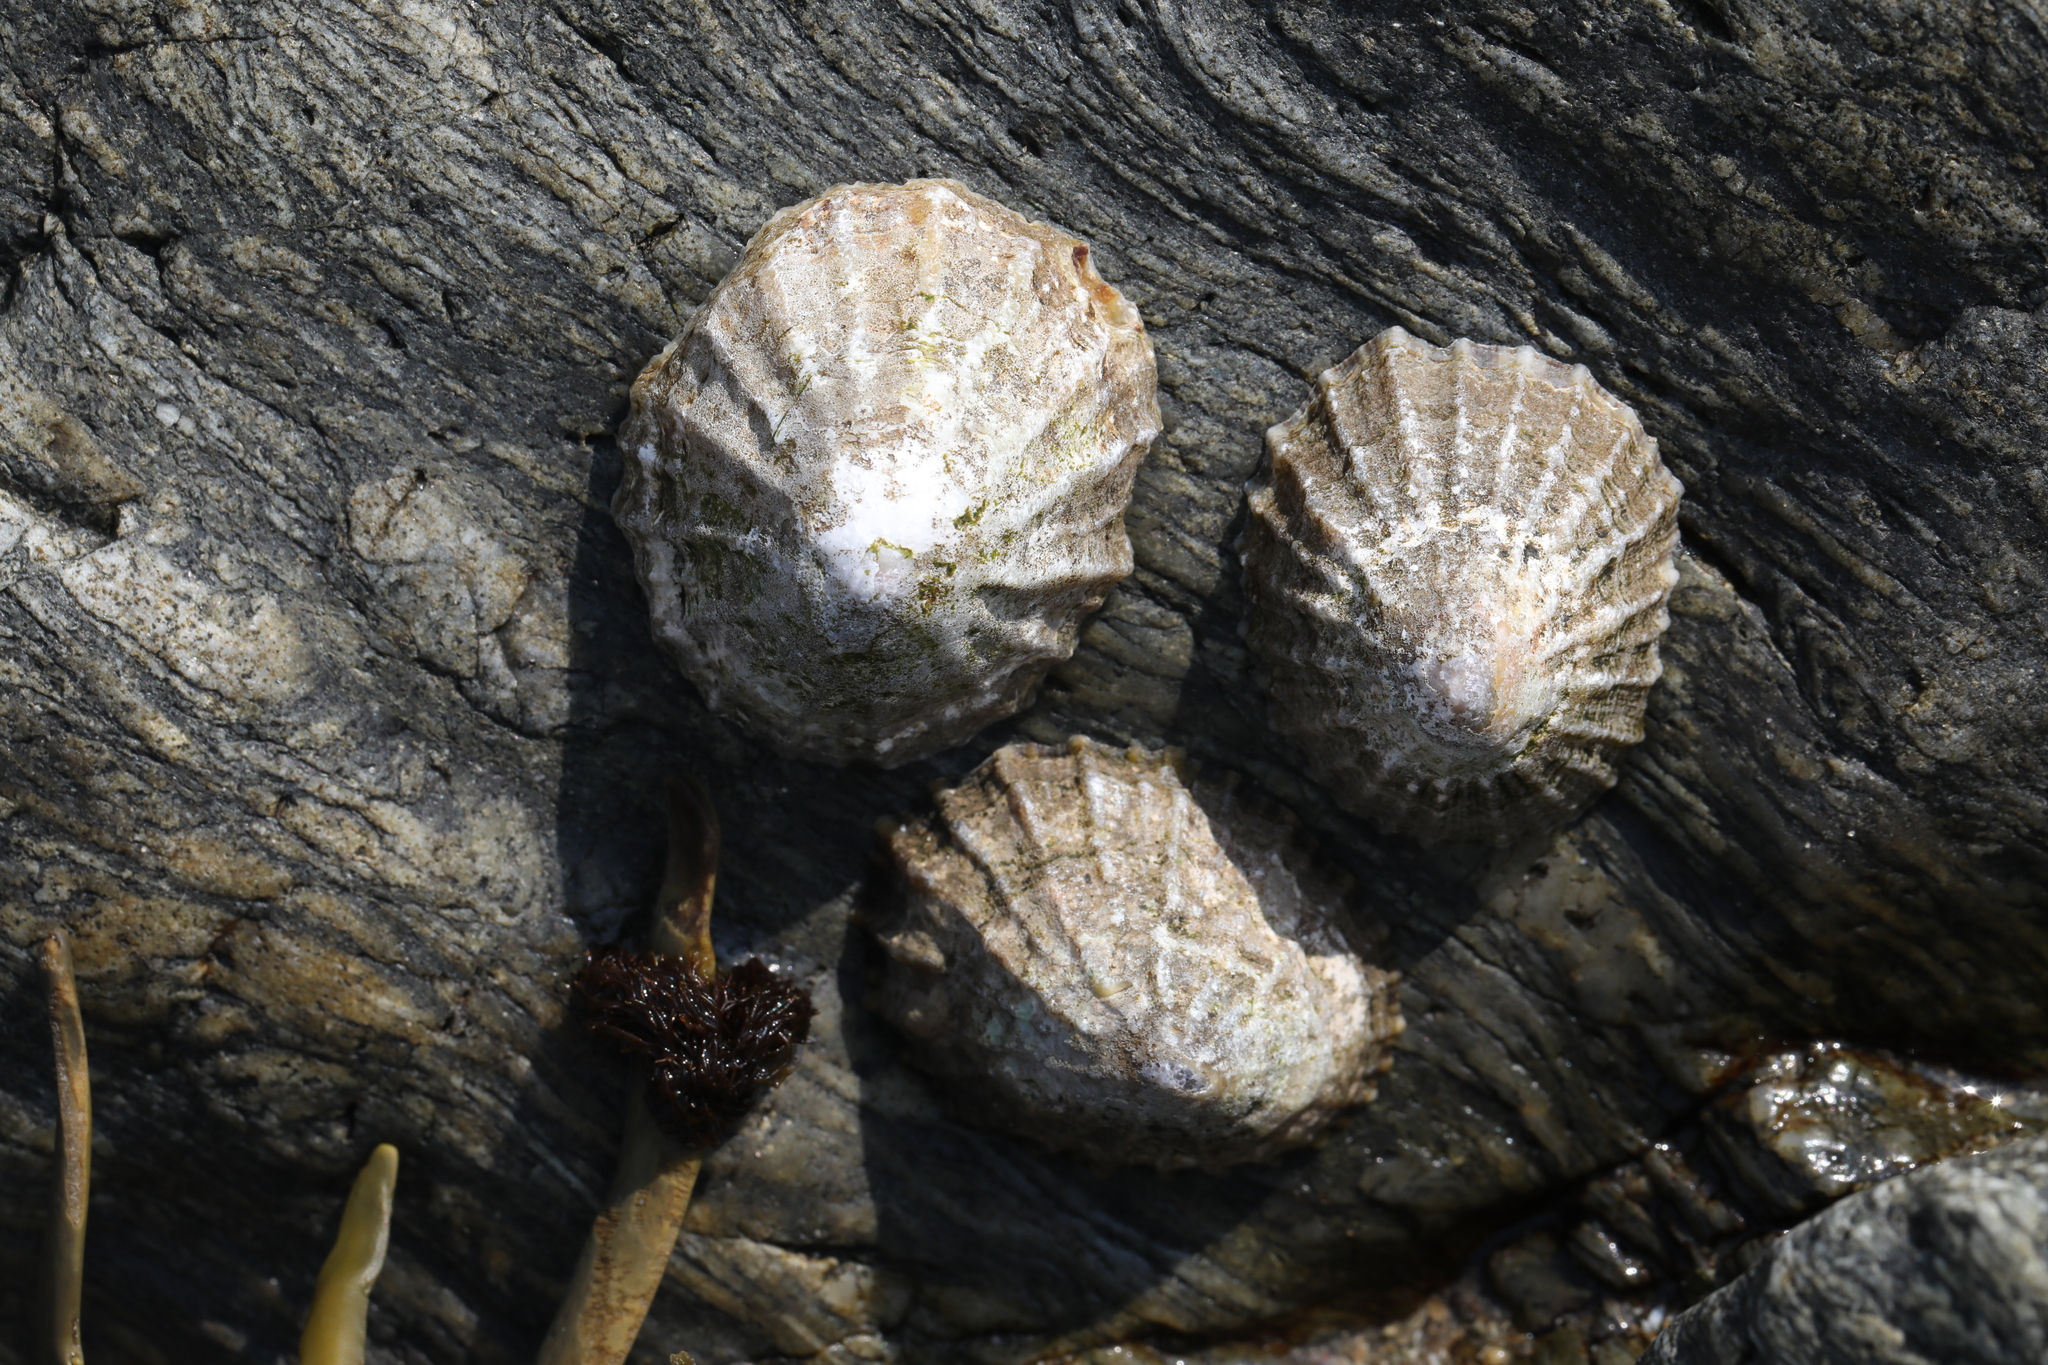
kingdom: Animalia
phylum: Mollusca
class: Gastropoda
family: Patellidae
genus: Patella
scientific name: Patella vulgata
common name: Common limpet
